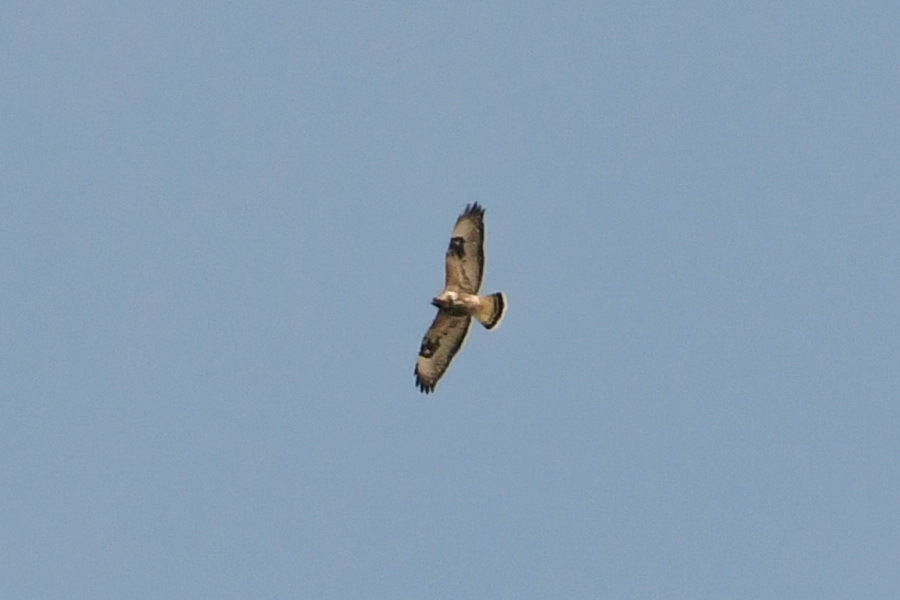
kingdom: Animalia
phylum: Chordata
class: Aves
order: Accipitriformes
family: Accipitridae
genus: Buteo
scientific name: Buteo lagopus
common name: Rough-legged buzzard
